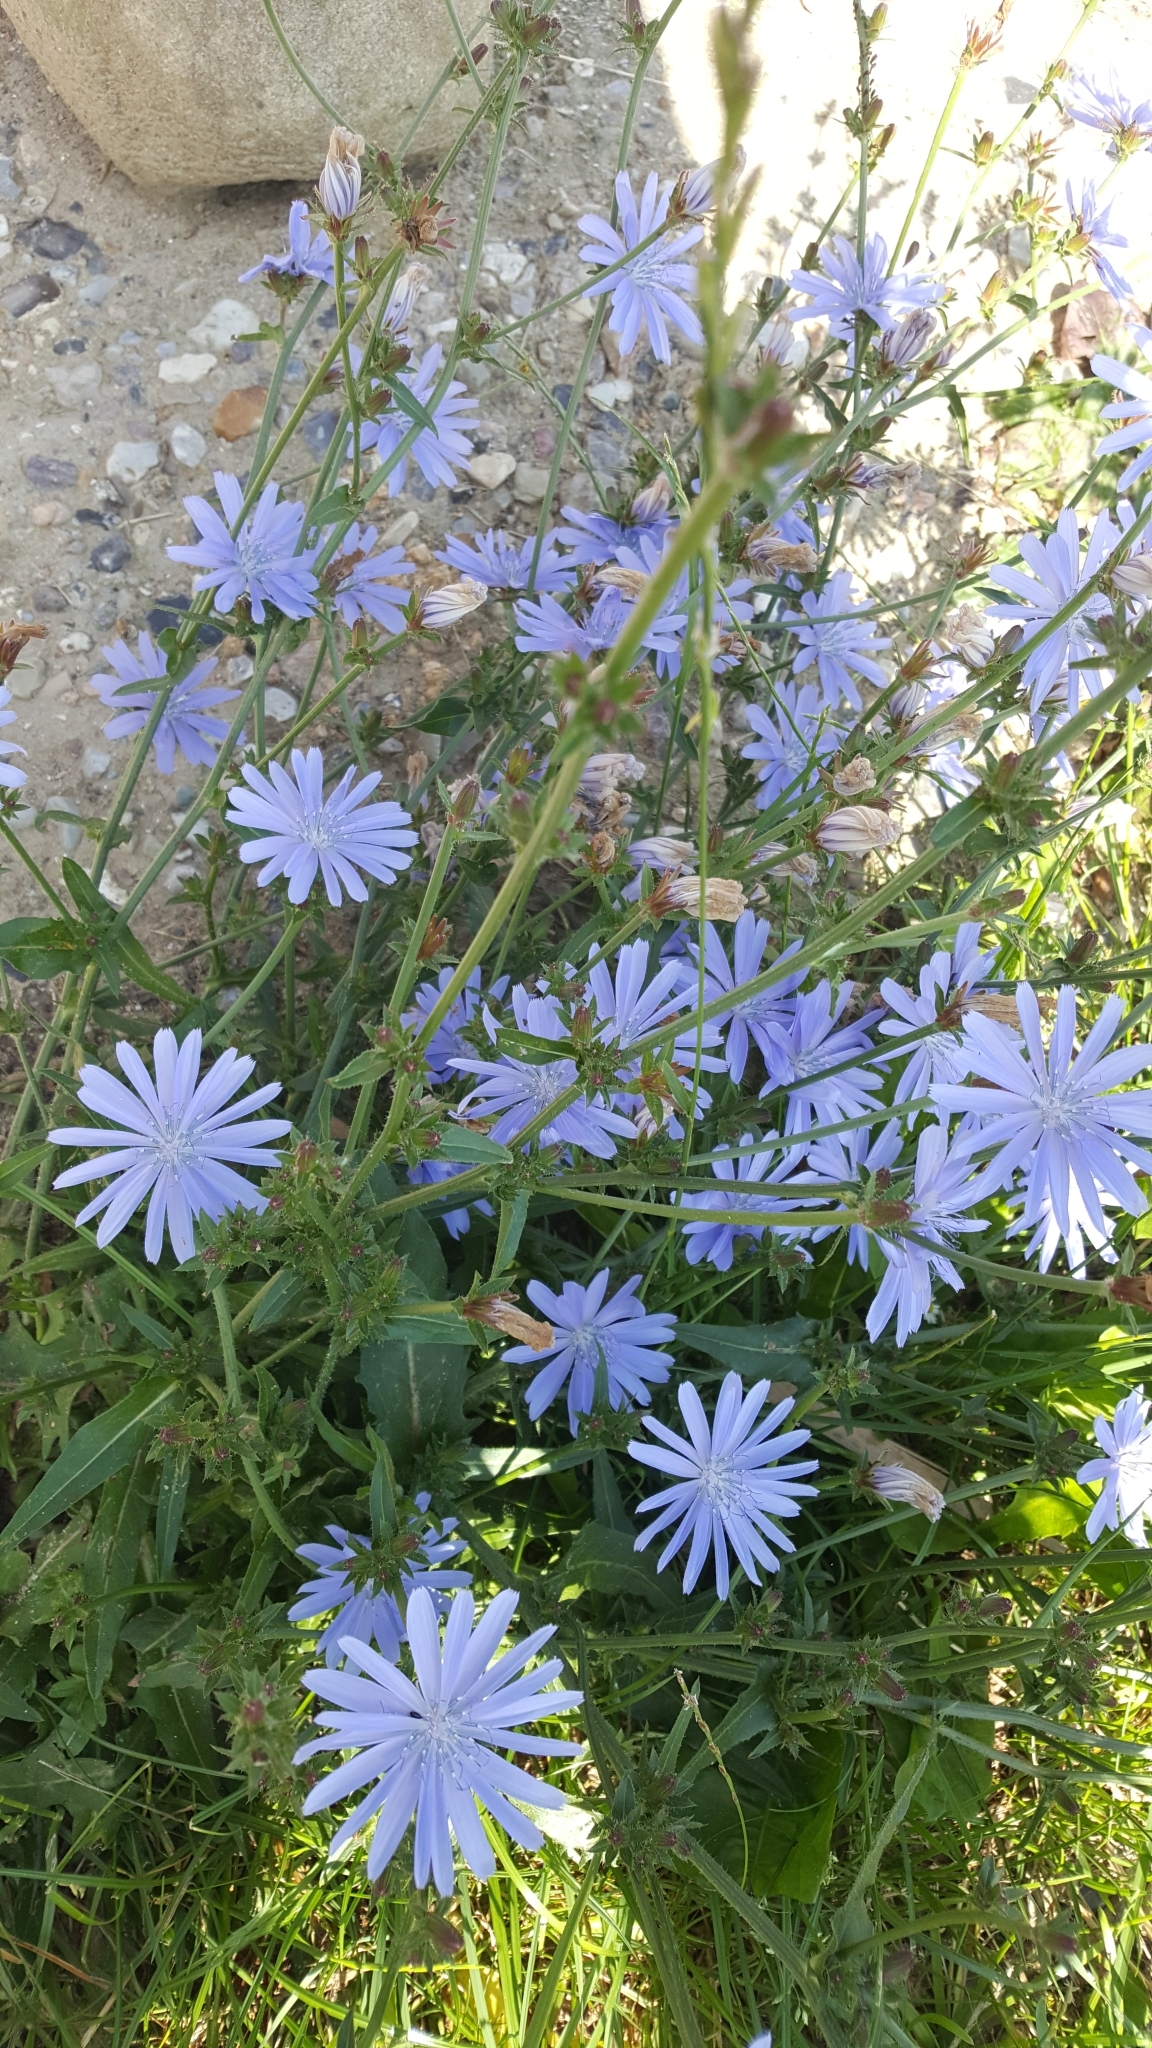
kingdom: Plantae
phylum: Tracheophyta
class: Magnoliopsida
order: Asterales
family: Asteraceae
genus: Cichorium
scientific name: Cichorium intybus
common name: Chicory
